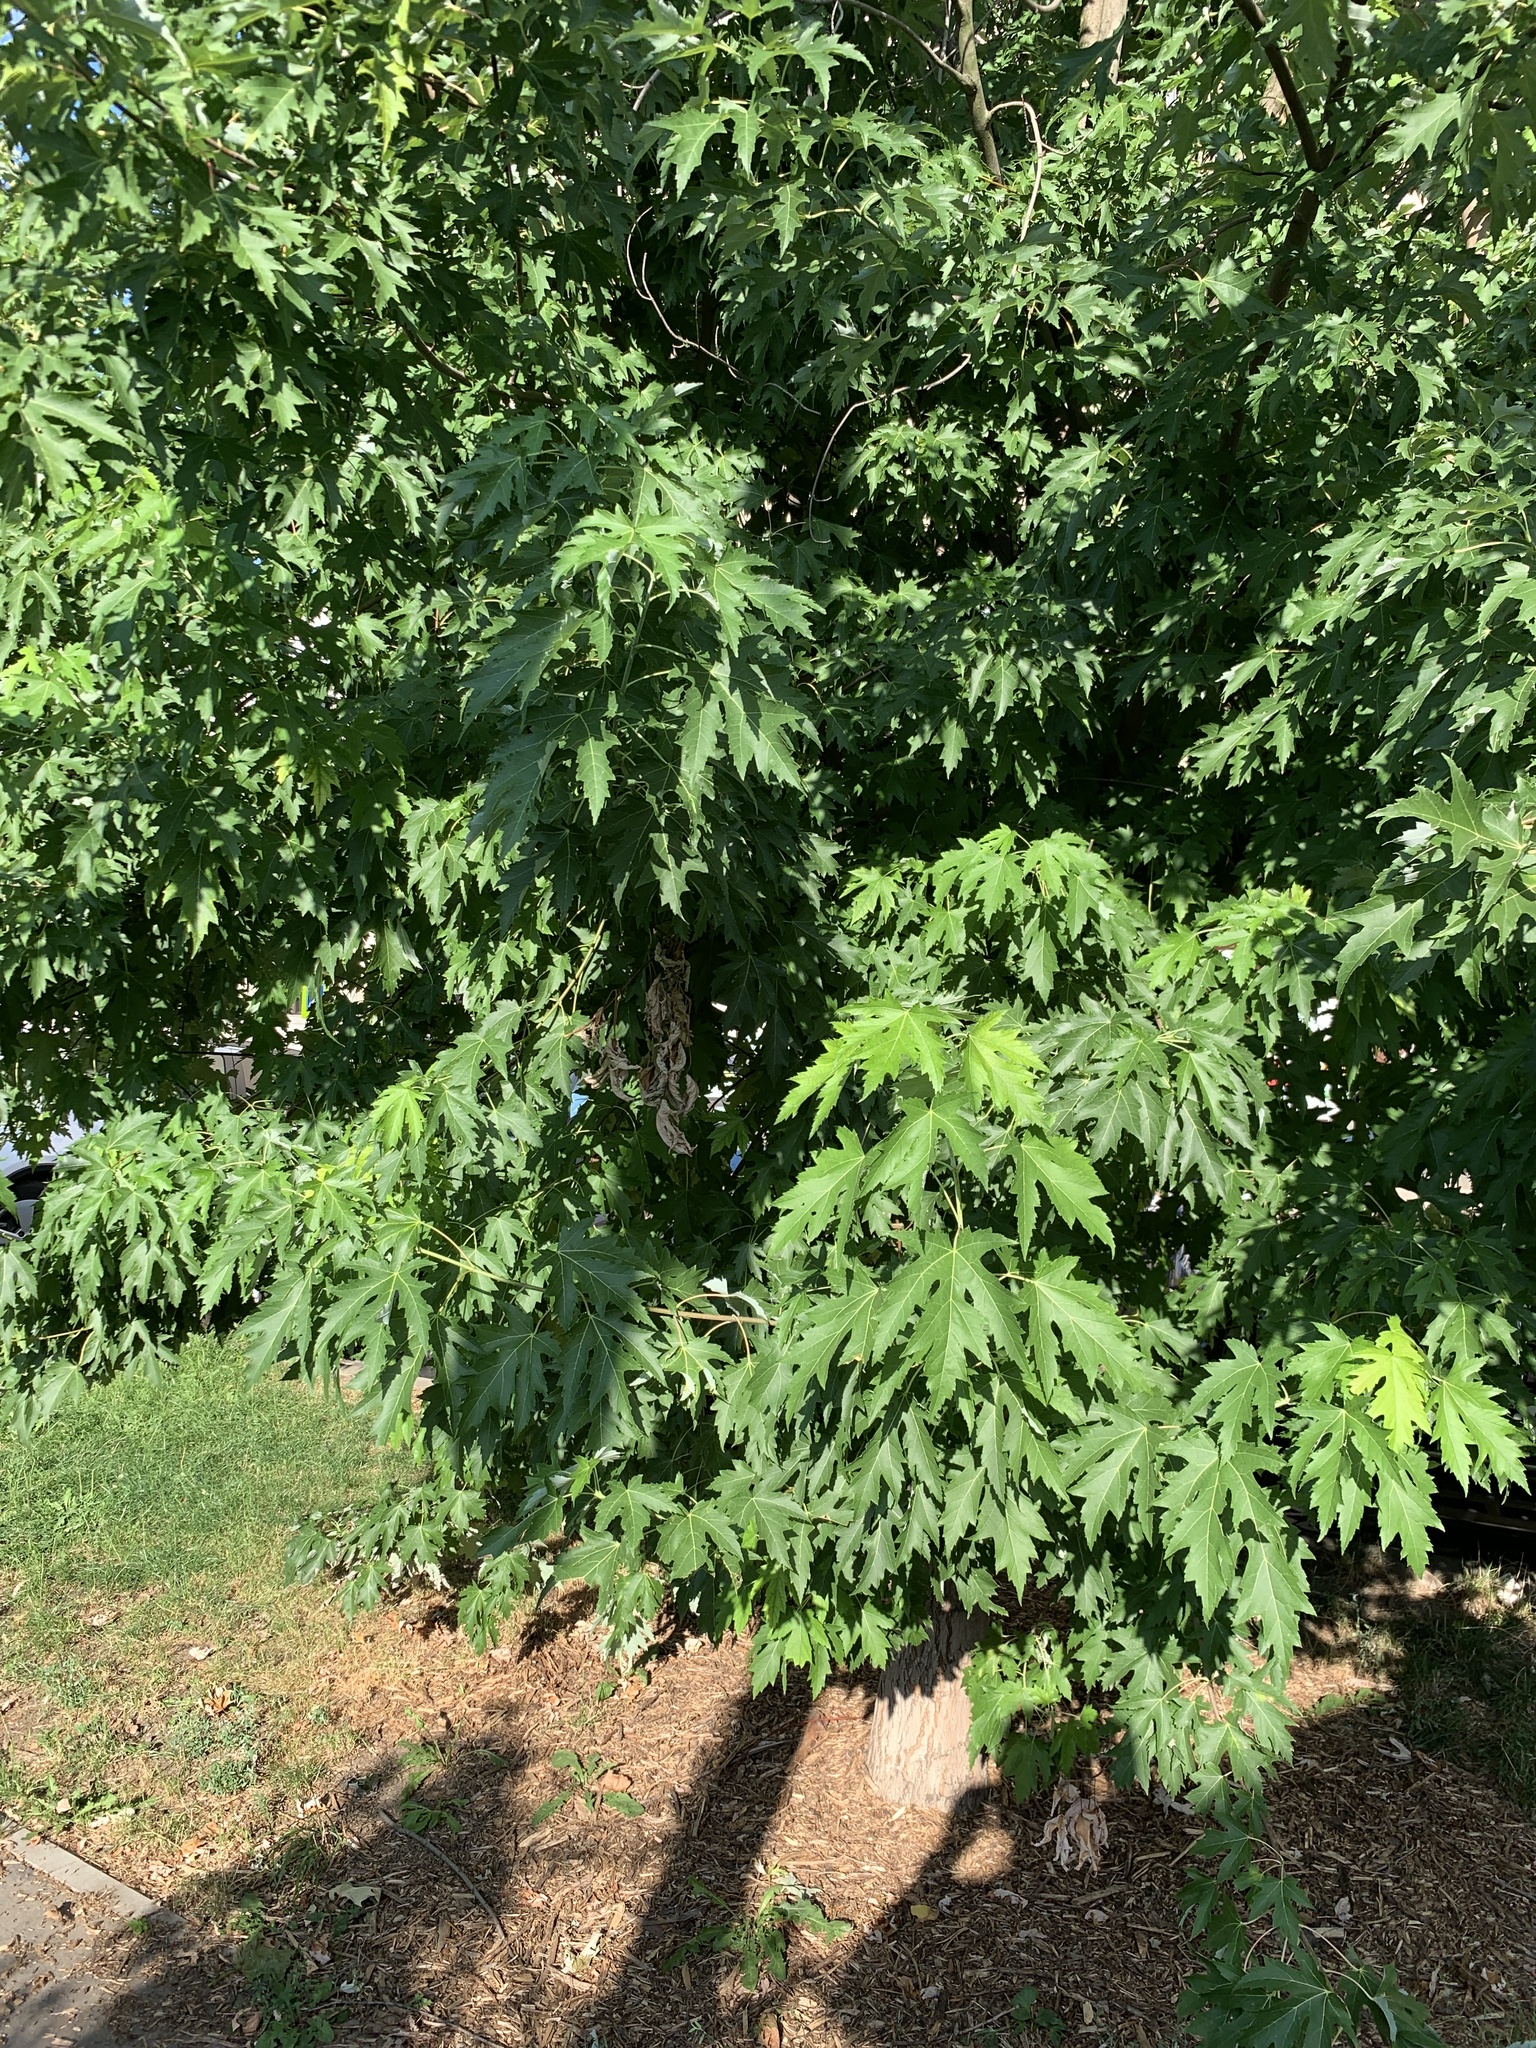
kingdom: Plantae
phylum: Tracheophyta
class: Magnoliopsida
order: Sapindales
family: Sapindaceae
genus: Acer
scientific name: Acer saccharinum
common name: Silver maple
